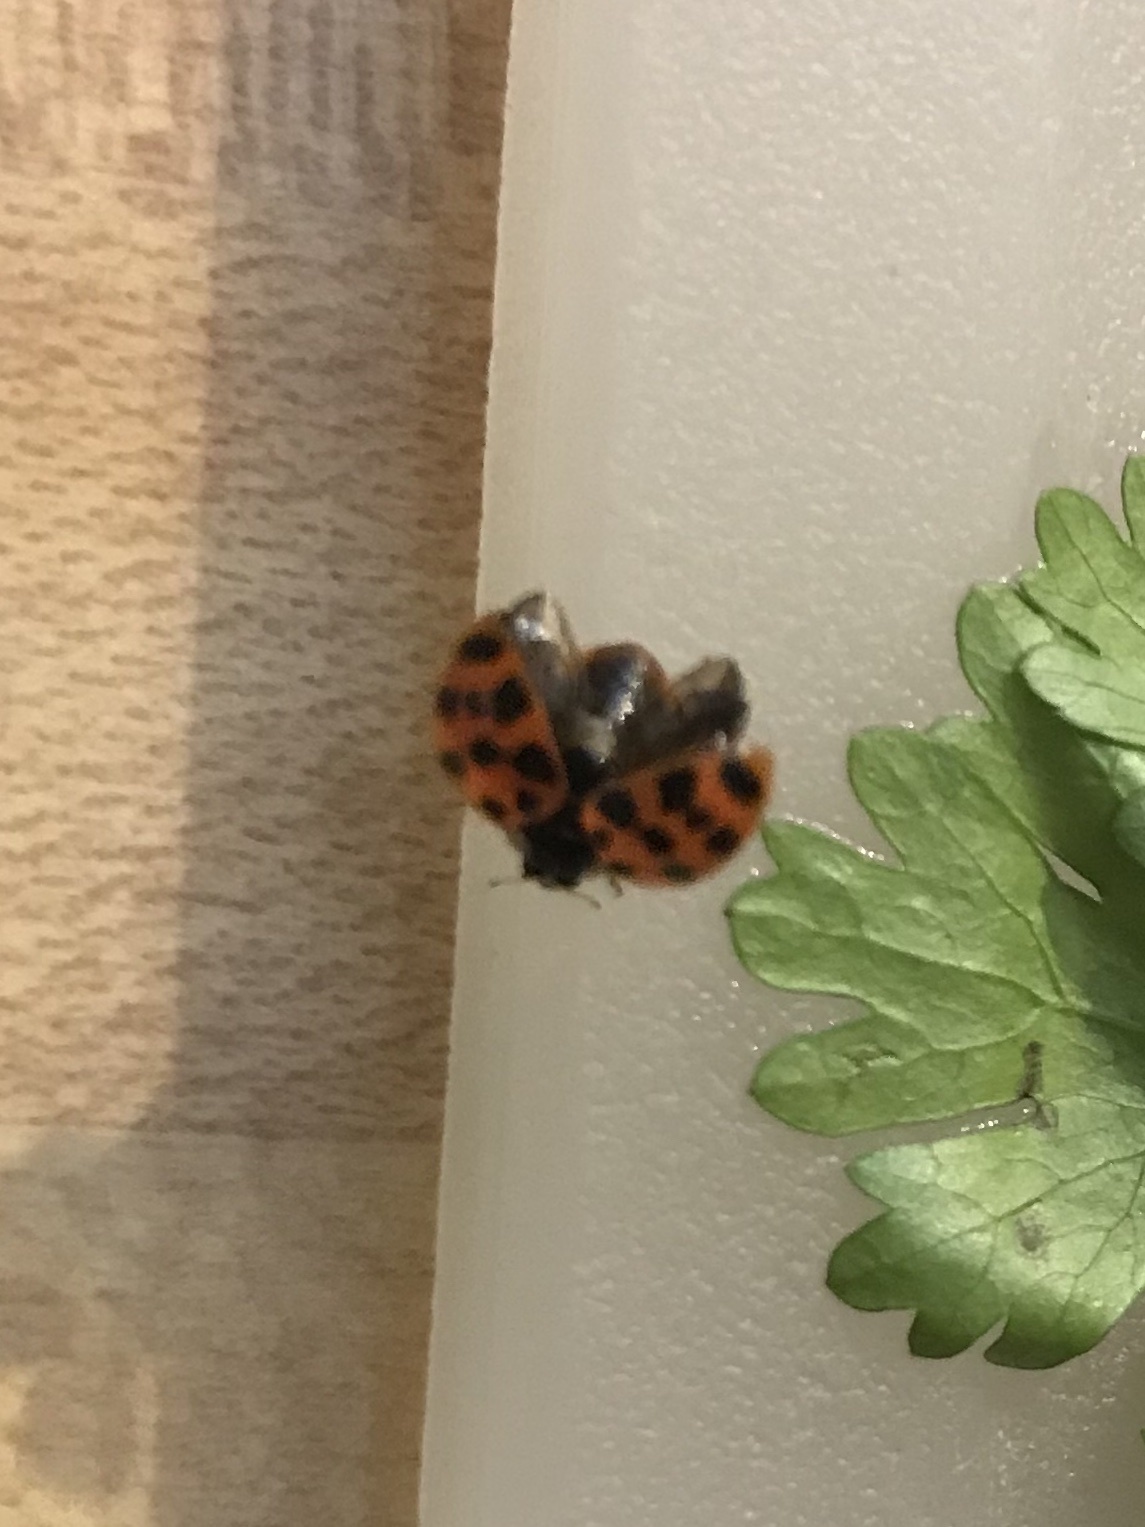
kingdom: Animalia
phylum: Arthropoda
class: Insecta
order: Coleoptera
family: Coccinellidae
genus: Harmonia
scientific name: Harmonia axyridis
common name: Harlequin ladybird
